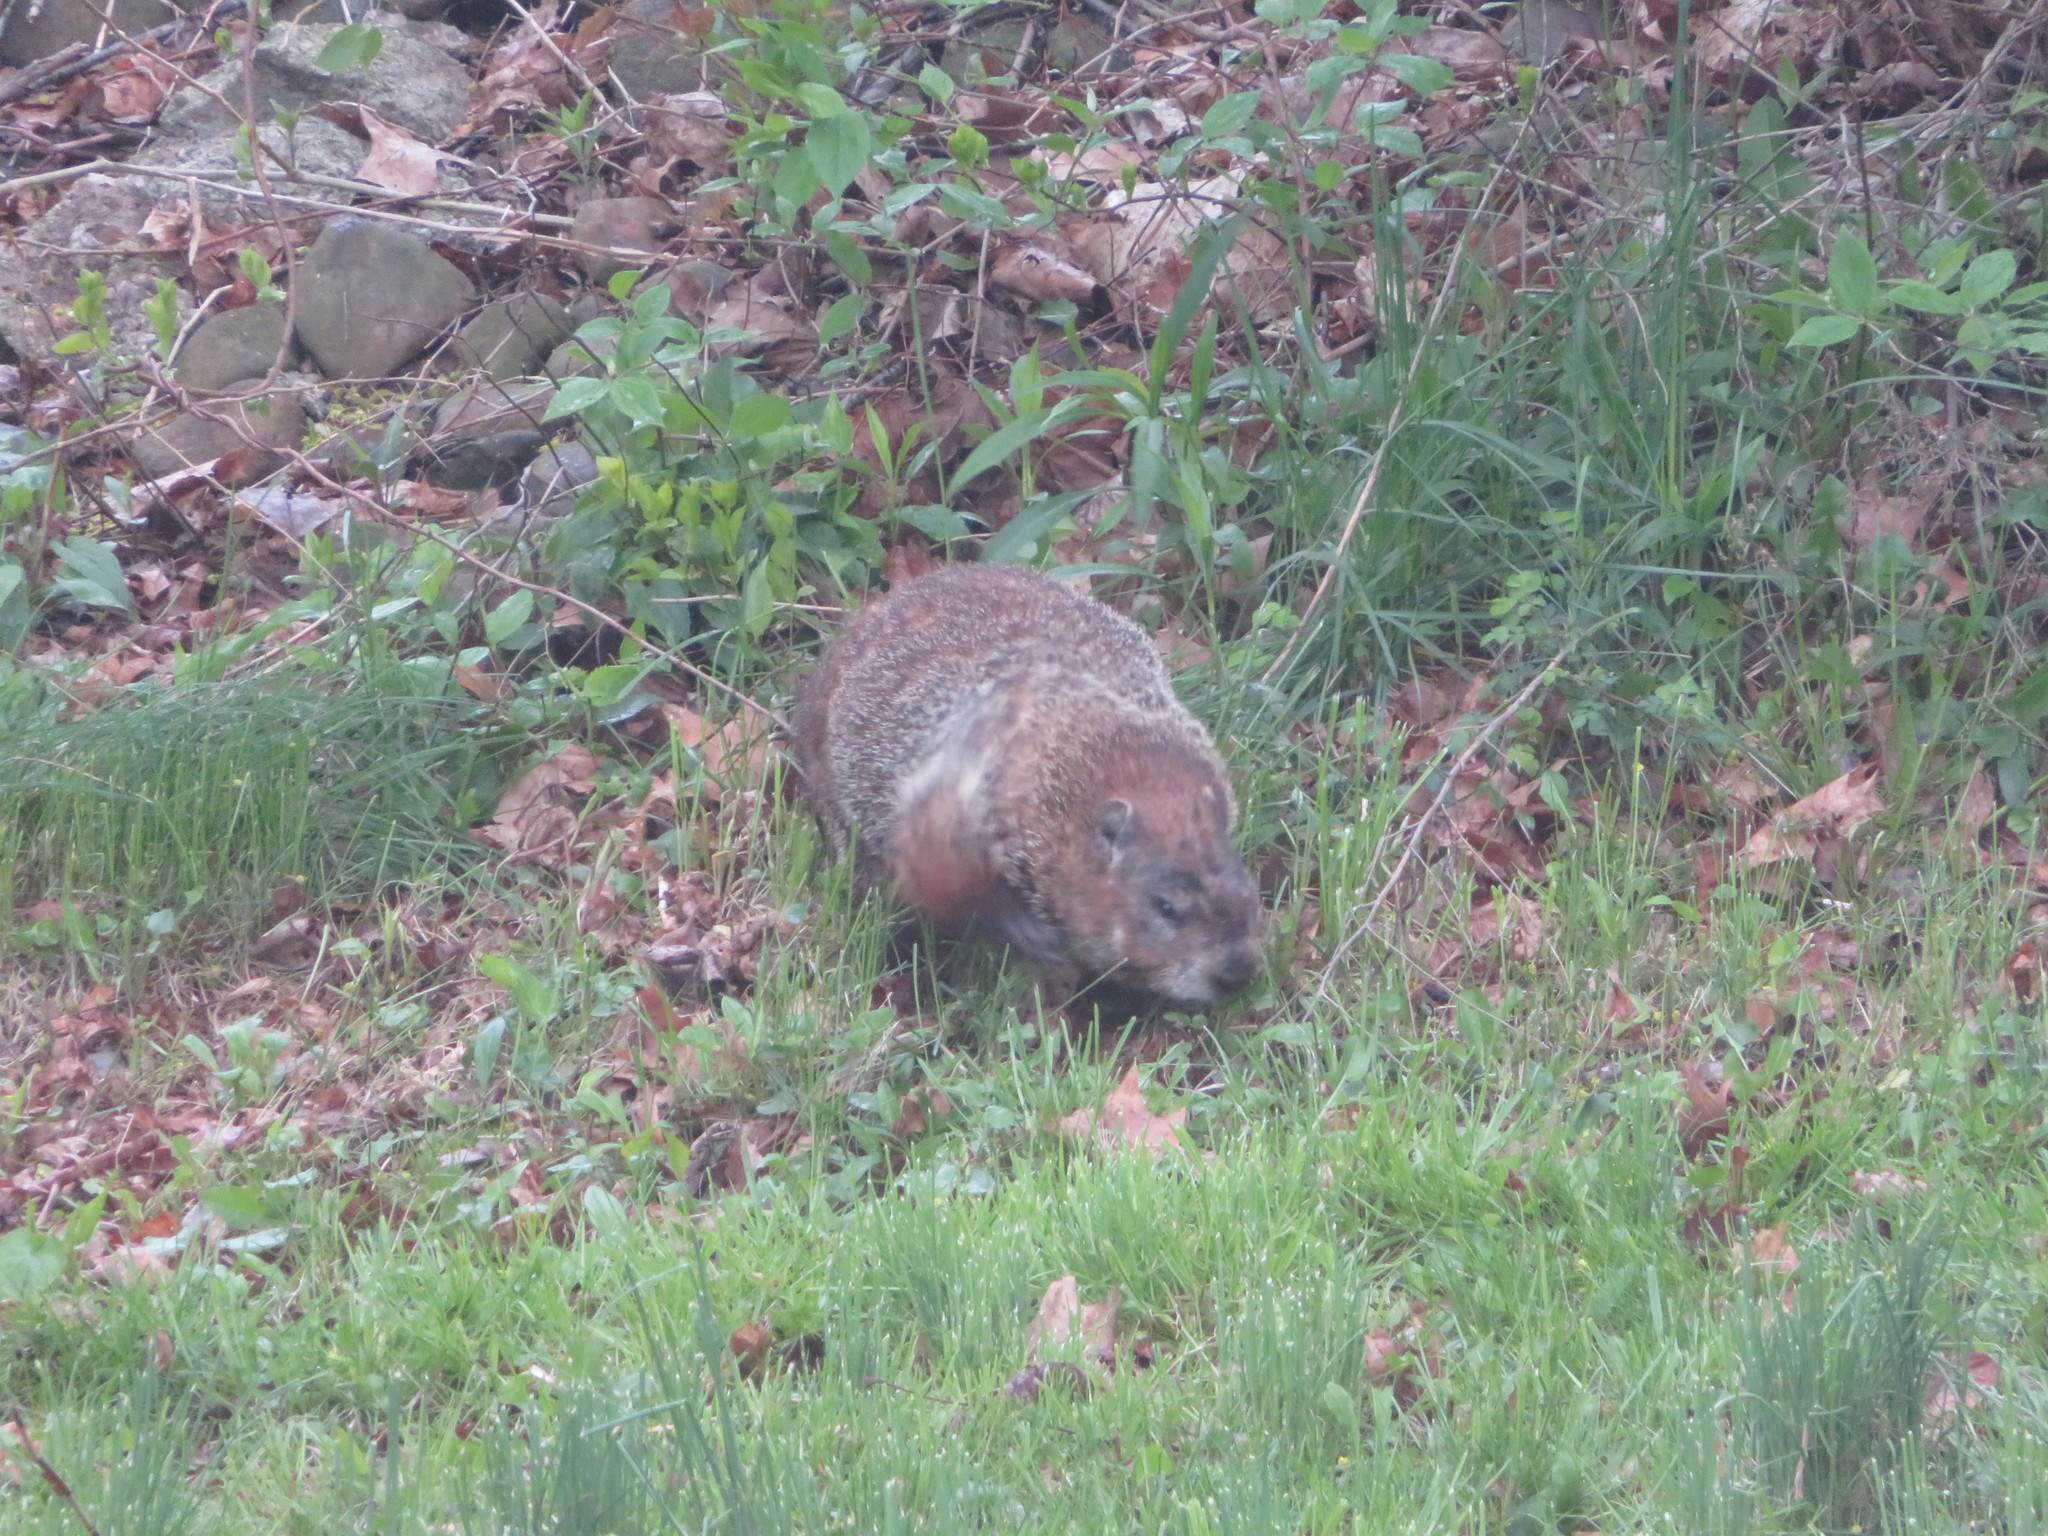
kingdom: Animalia
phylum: Chordata
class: Mammalia
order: Rodentia
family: Sciuridae
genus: Marmota
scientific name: Marmota monax
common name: Groundhog
